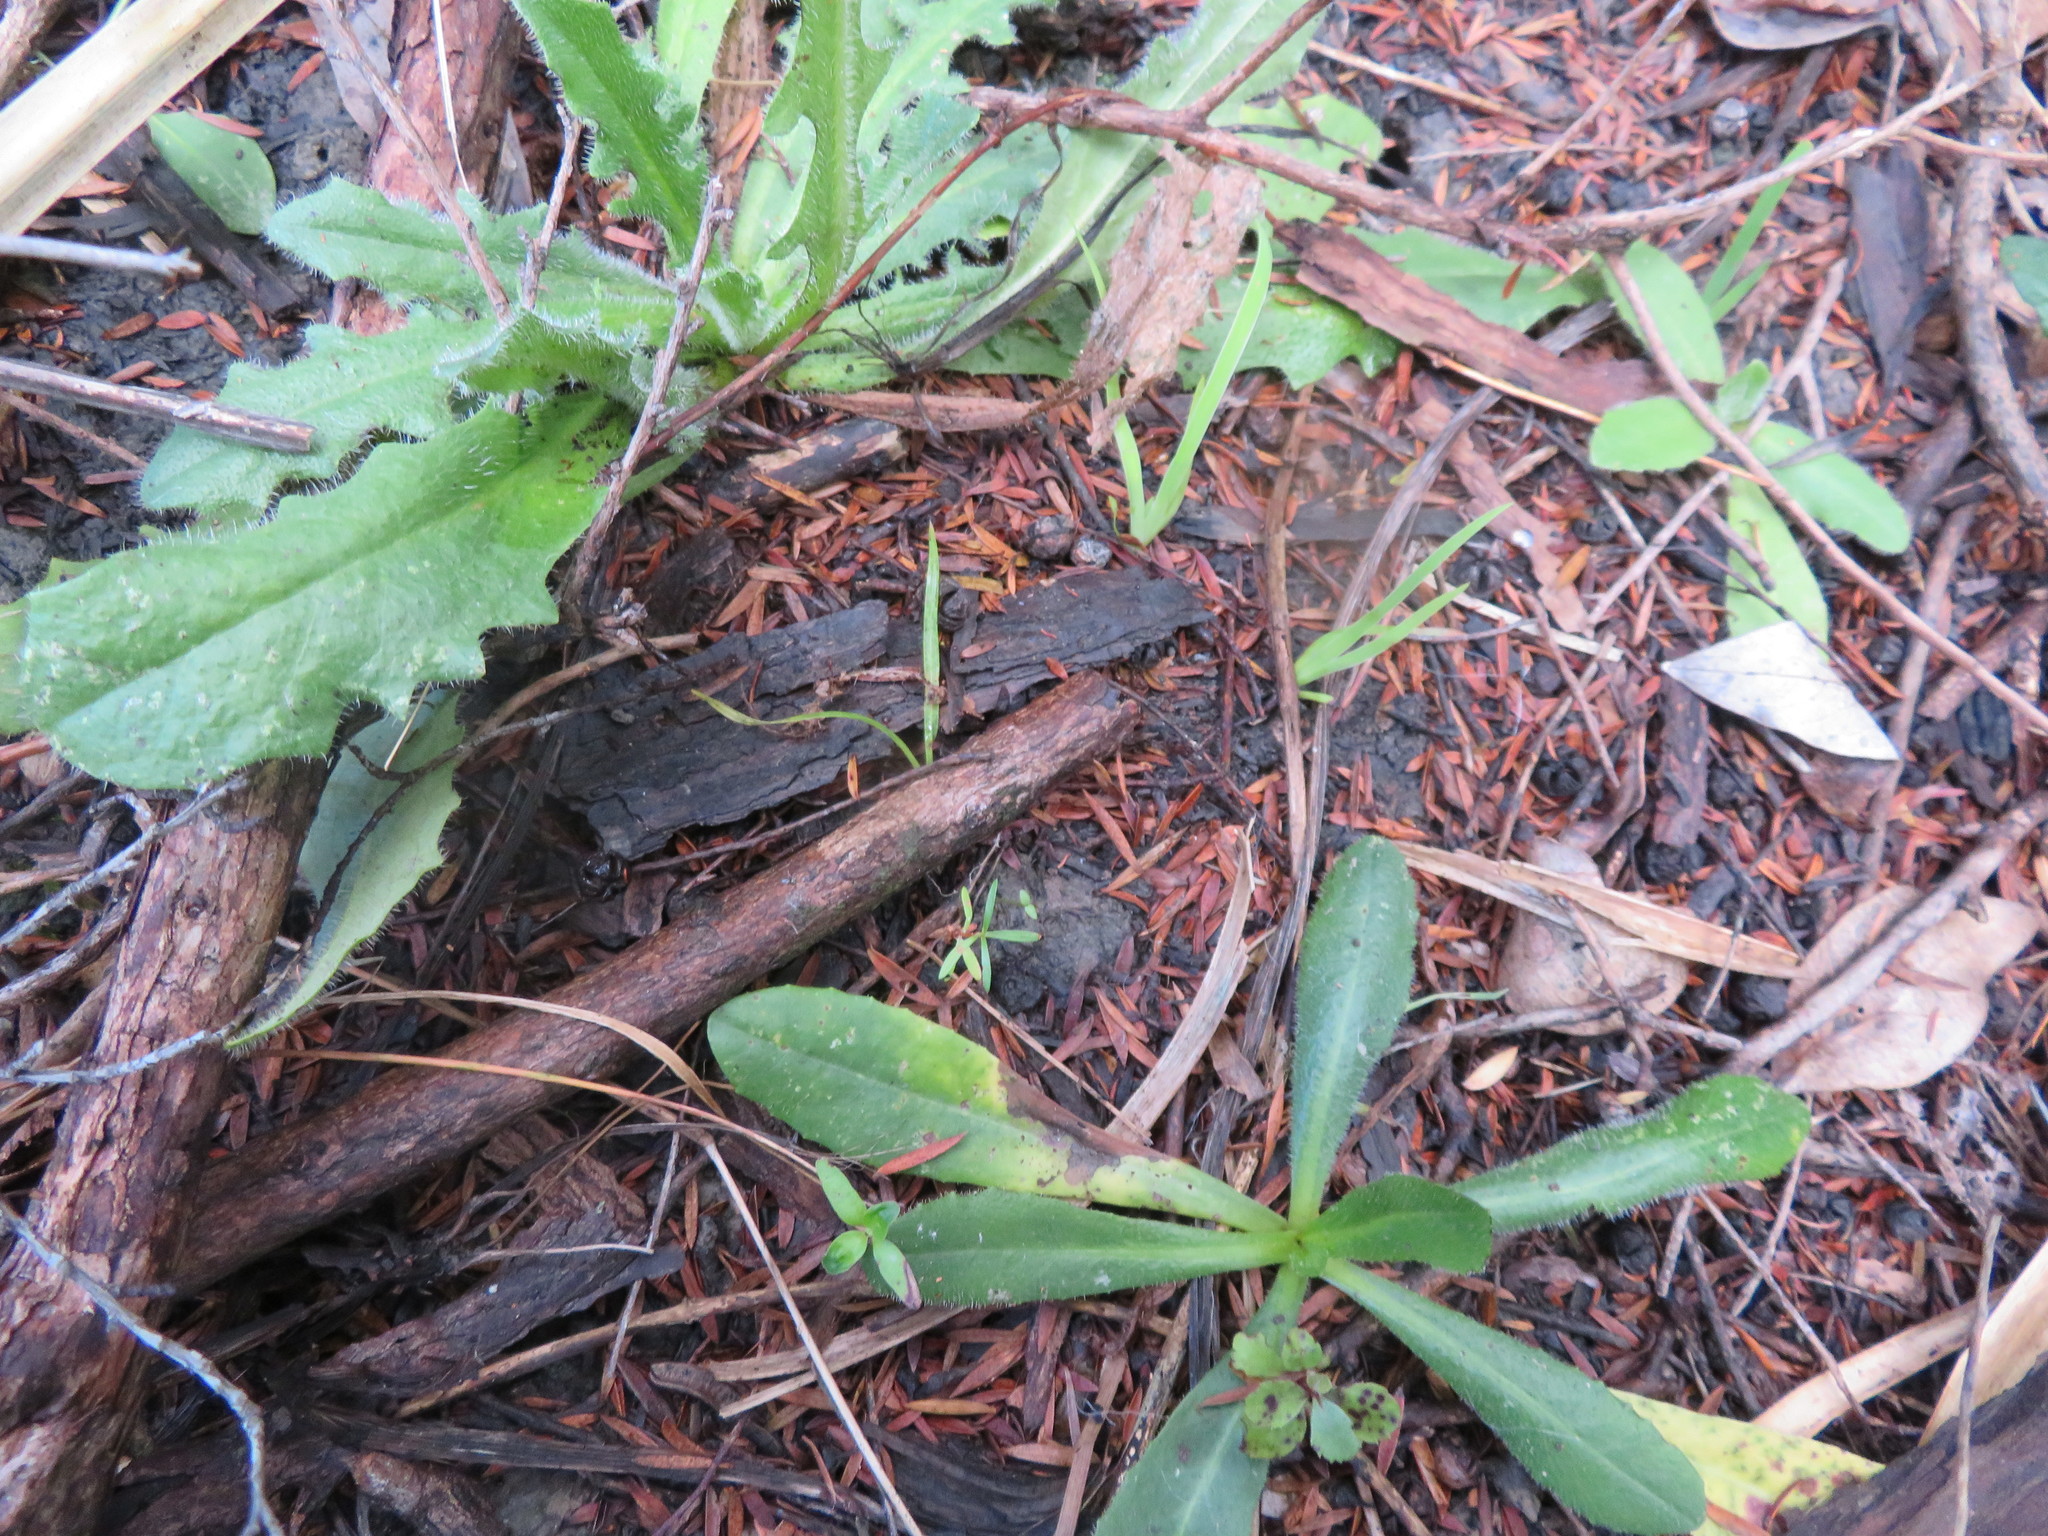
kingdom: Plantae
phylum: Tracheophyta
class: Magnoliopsida
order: Ericales
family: Primulaceae
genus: Myrsine
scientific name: Myrsine australis
